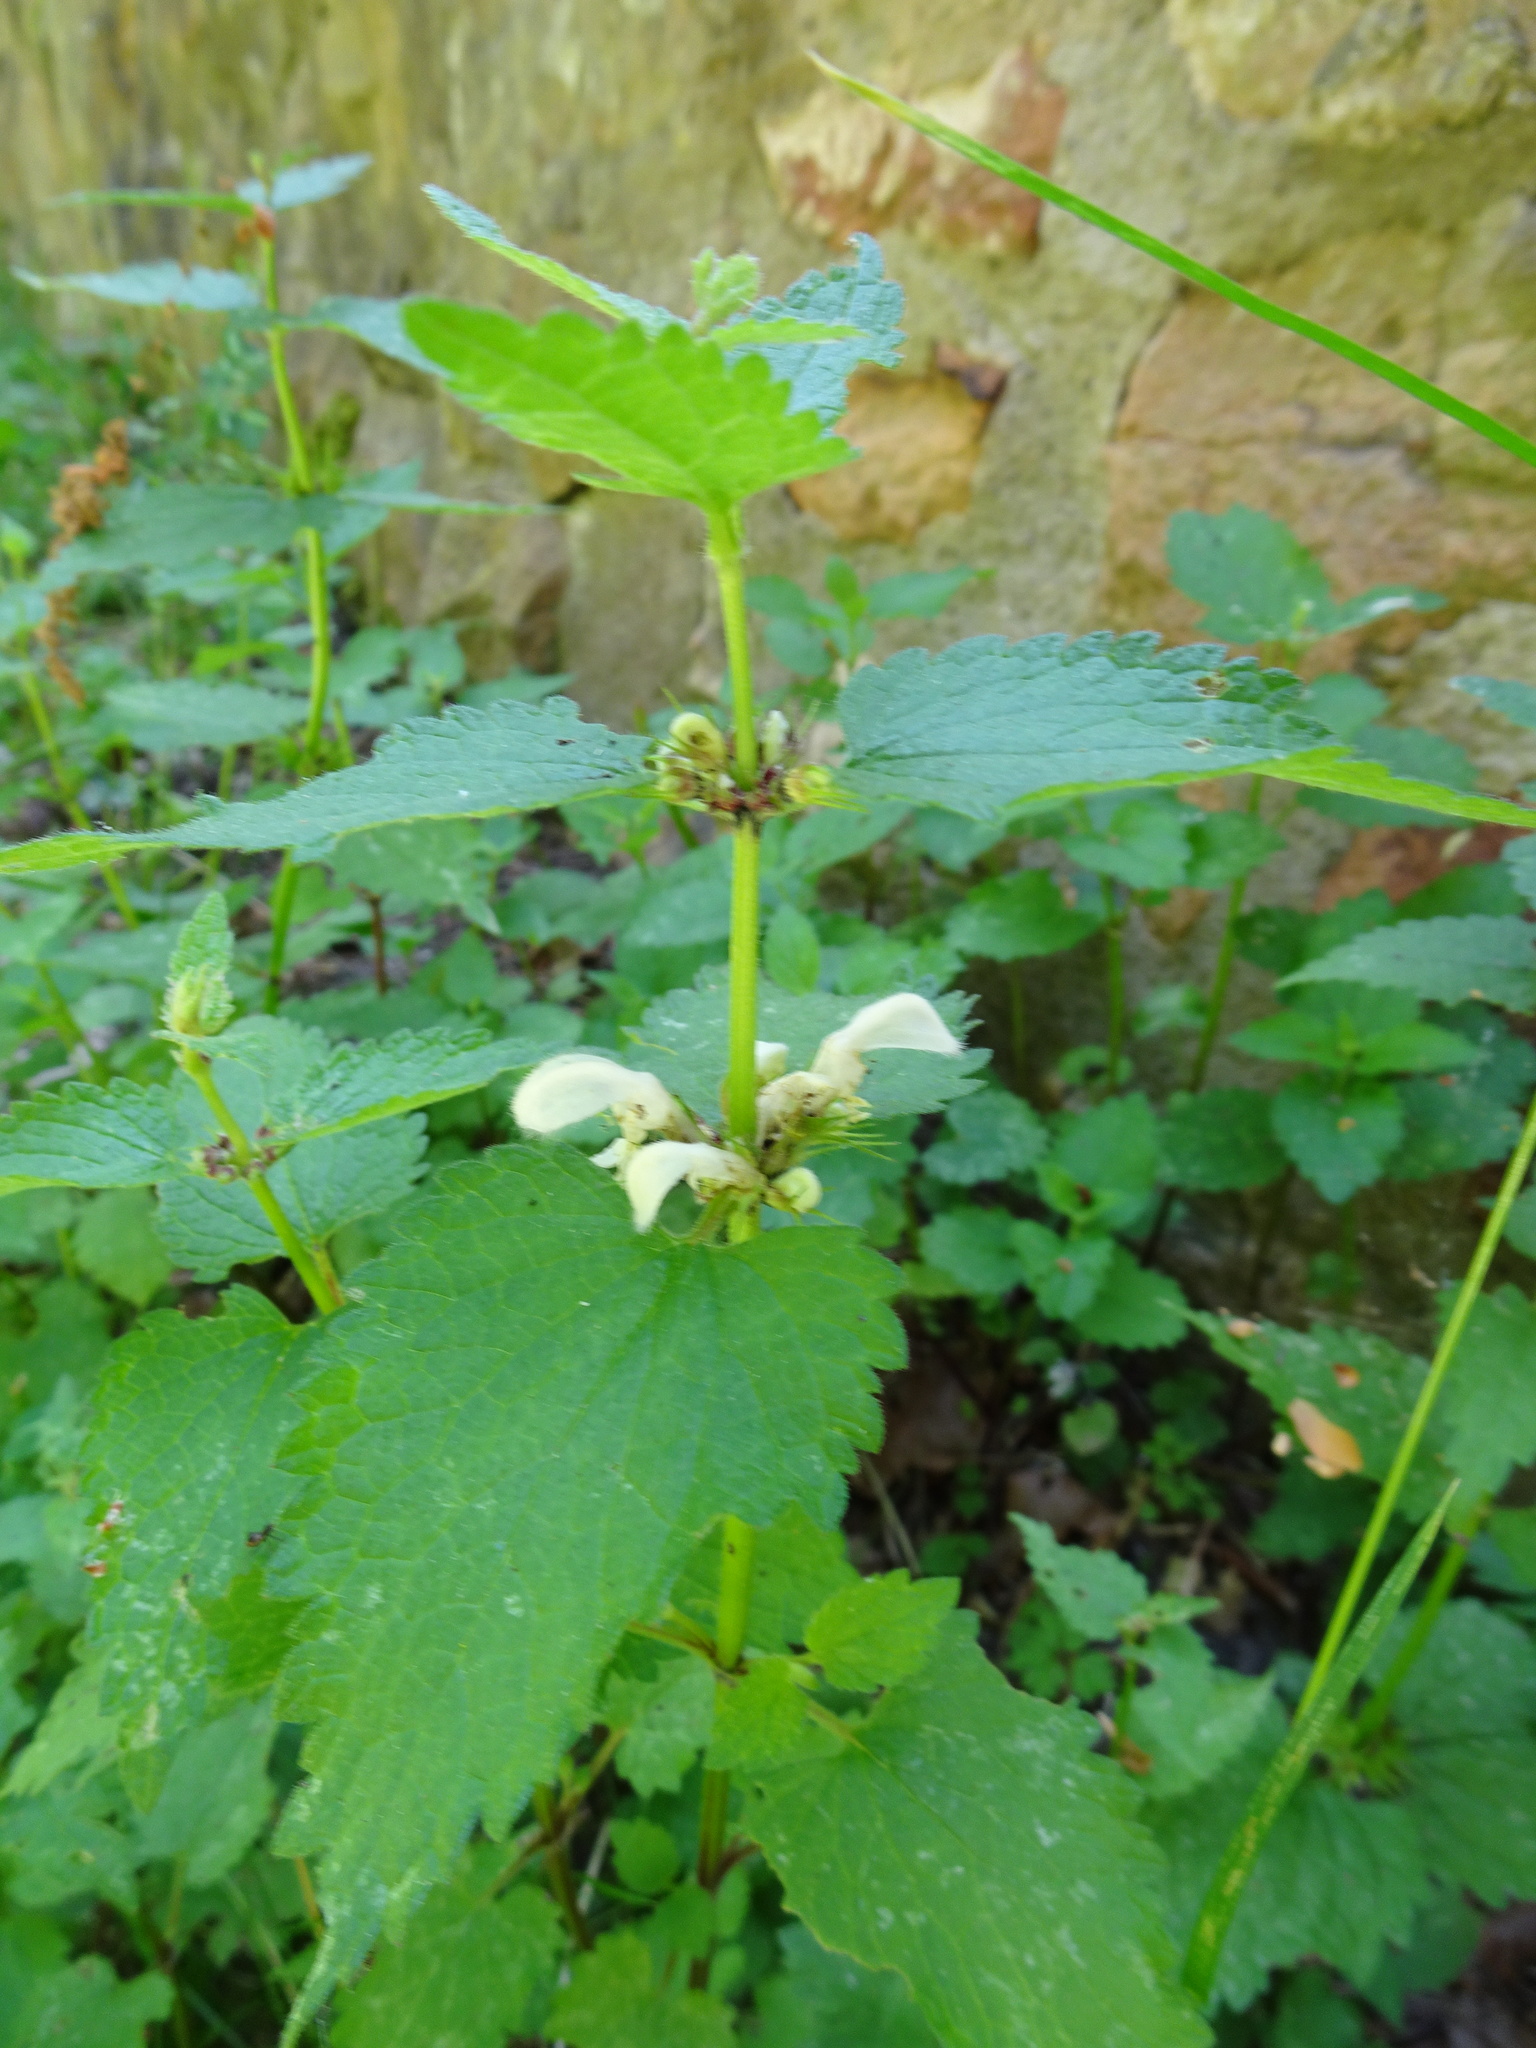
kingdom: Plantae
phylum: Tracheophyta
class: Magnoliopsida
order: Lamiales
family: Lamiaceae
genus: Lamium
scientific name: Lamium album
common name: White dead-nettle
